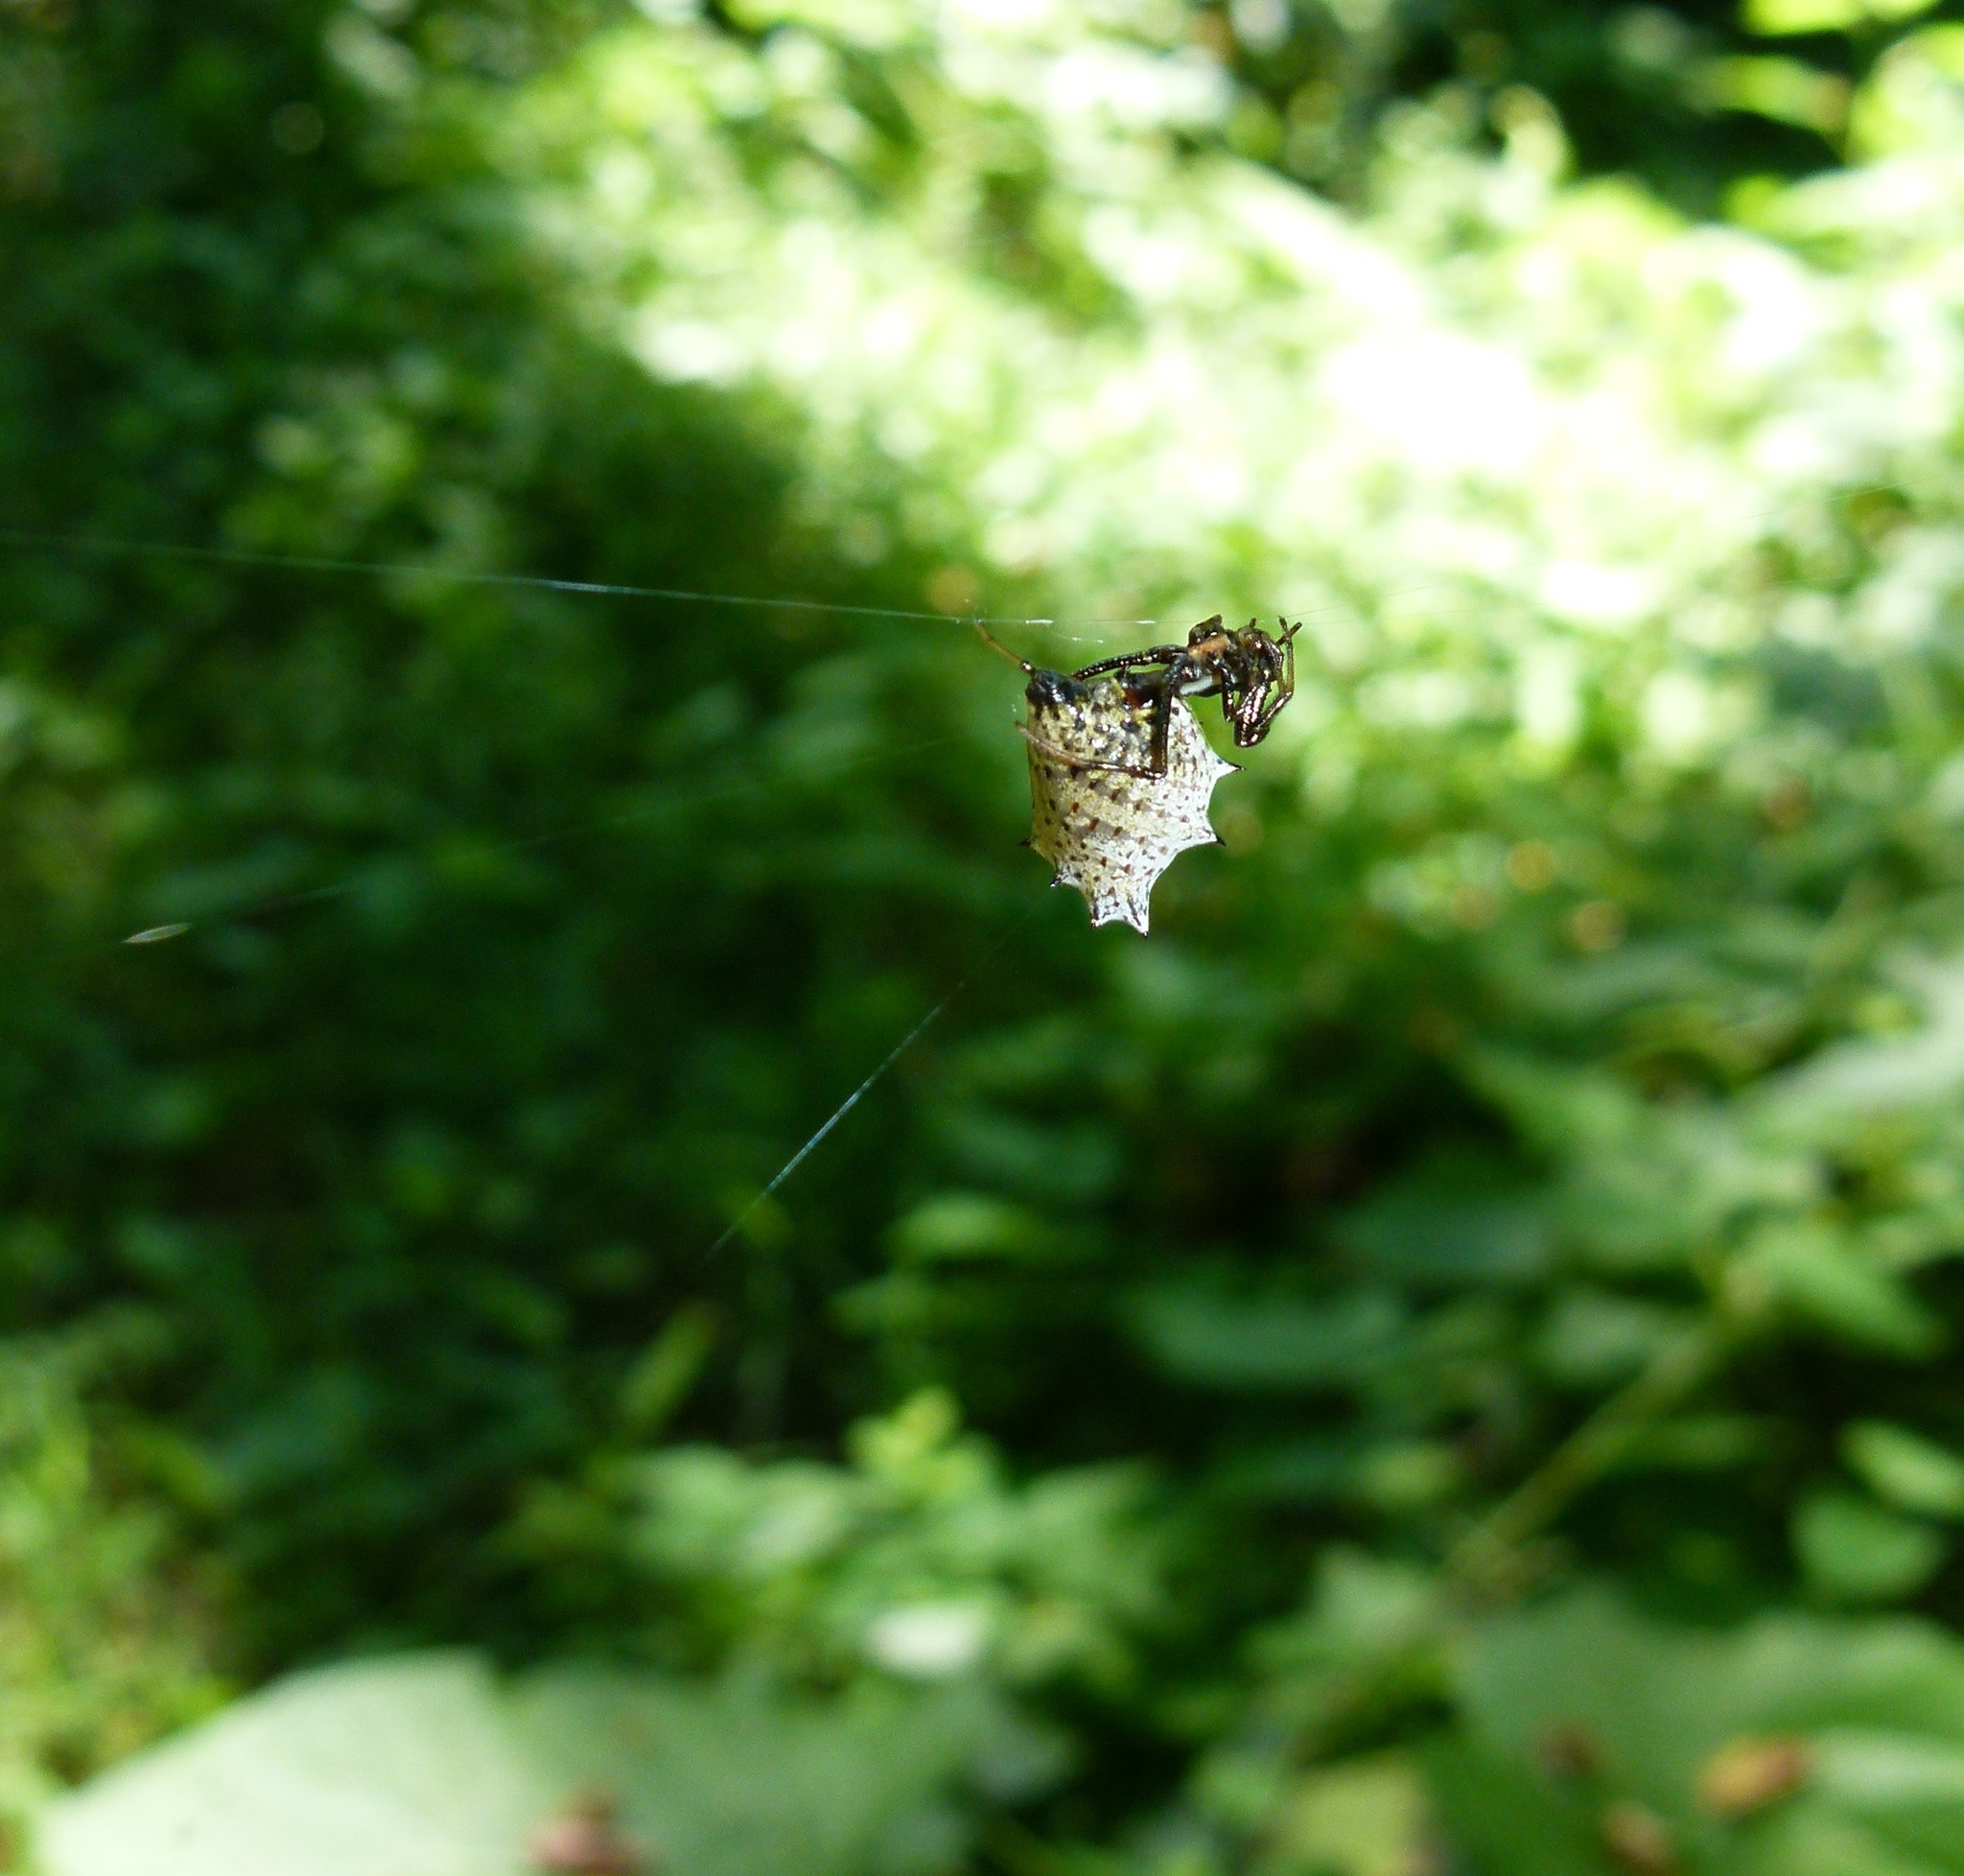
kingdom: Animalia
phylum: Arthropoda
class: Arachnida
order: Araneae
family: Araneidae
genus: Micrathena
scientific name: Micrathena gracilis
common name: Orb weavers
